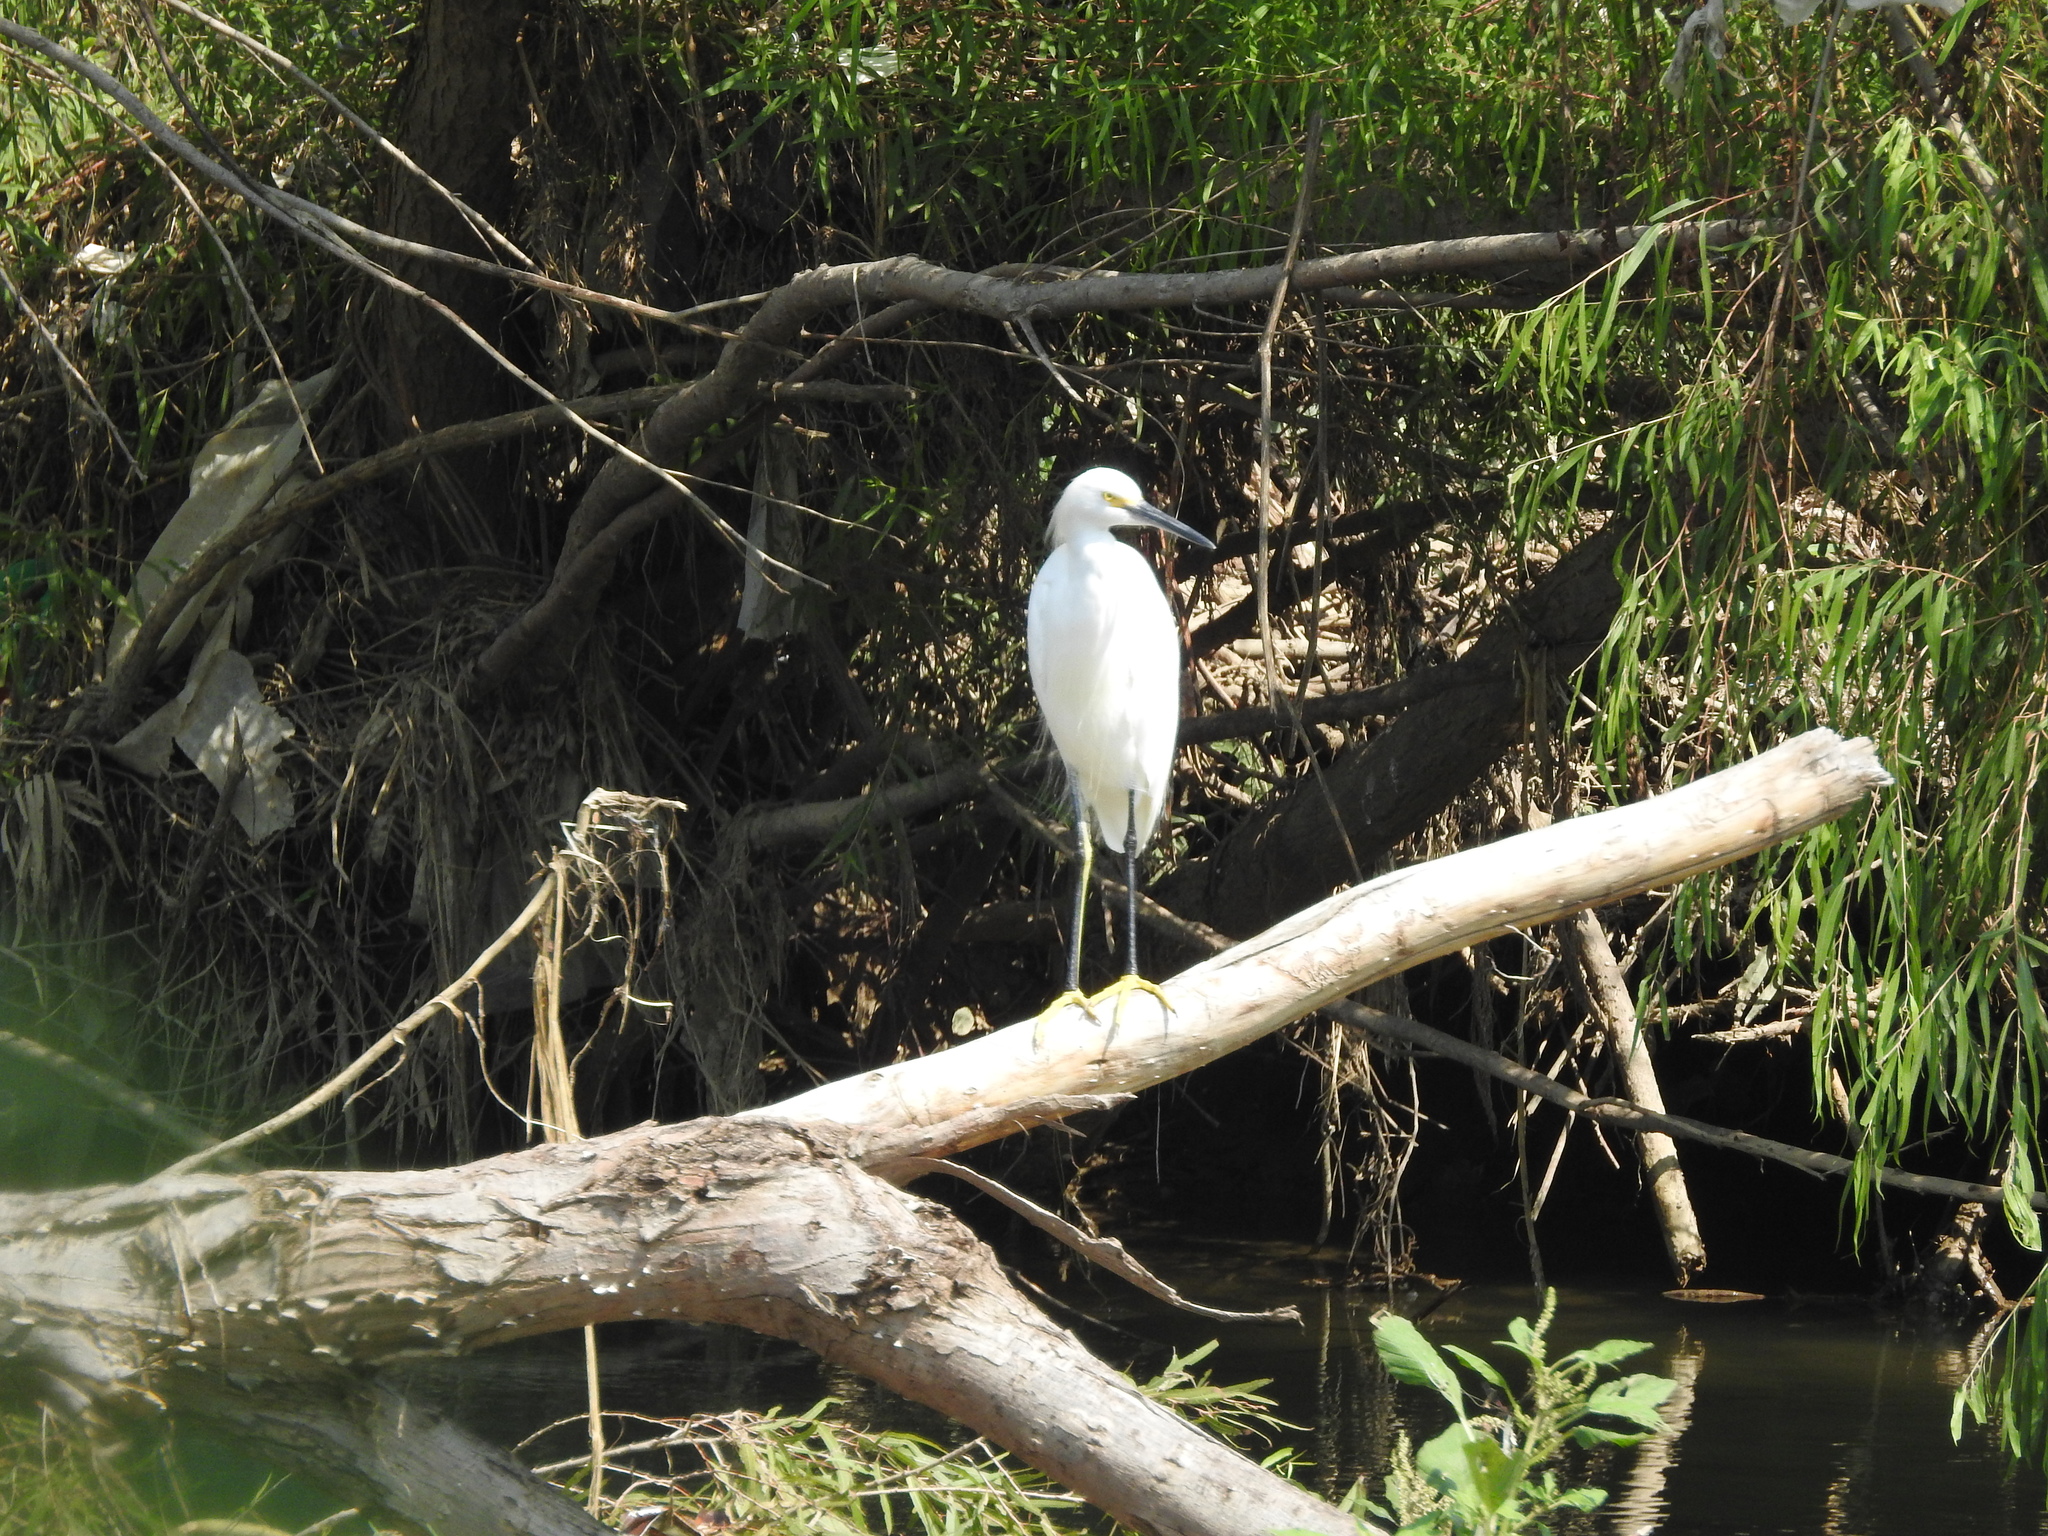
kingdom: Animalia
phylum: Chordata
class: Aves
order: Pelecaniformes
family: Ardeidae
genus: Egretta
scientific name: Egretta thula
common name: Snowy egret
